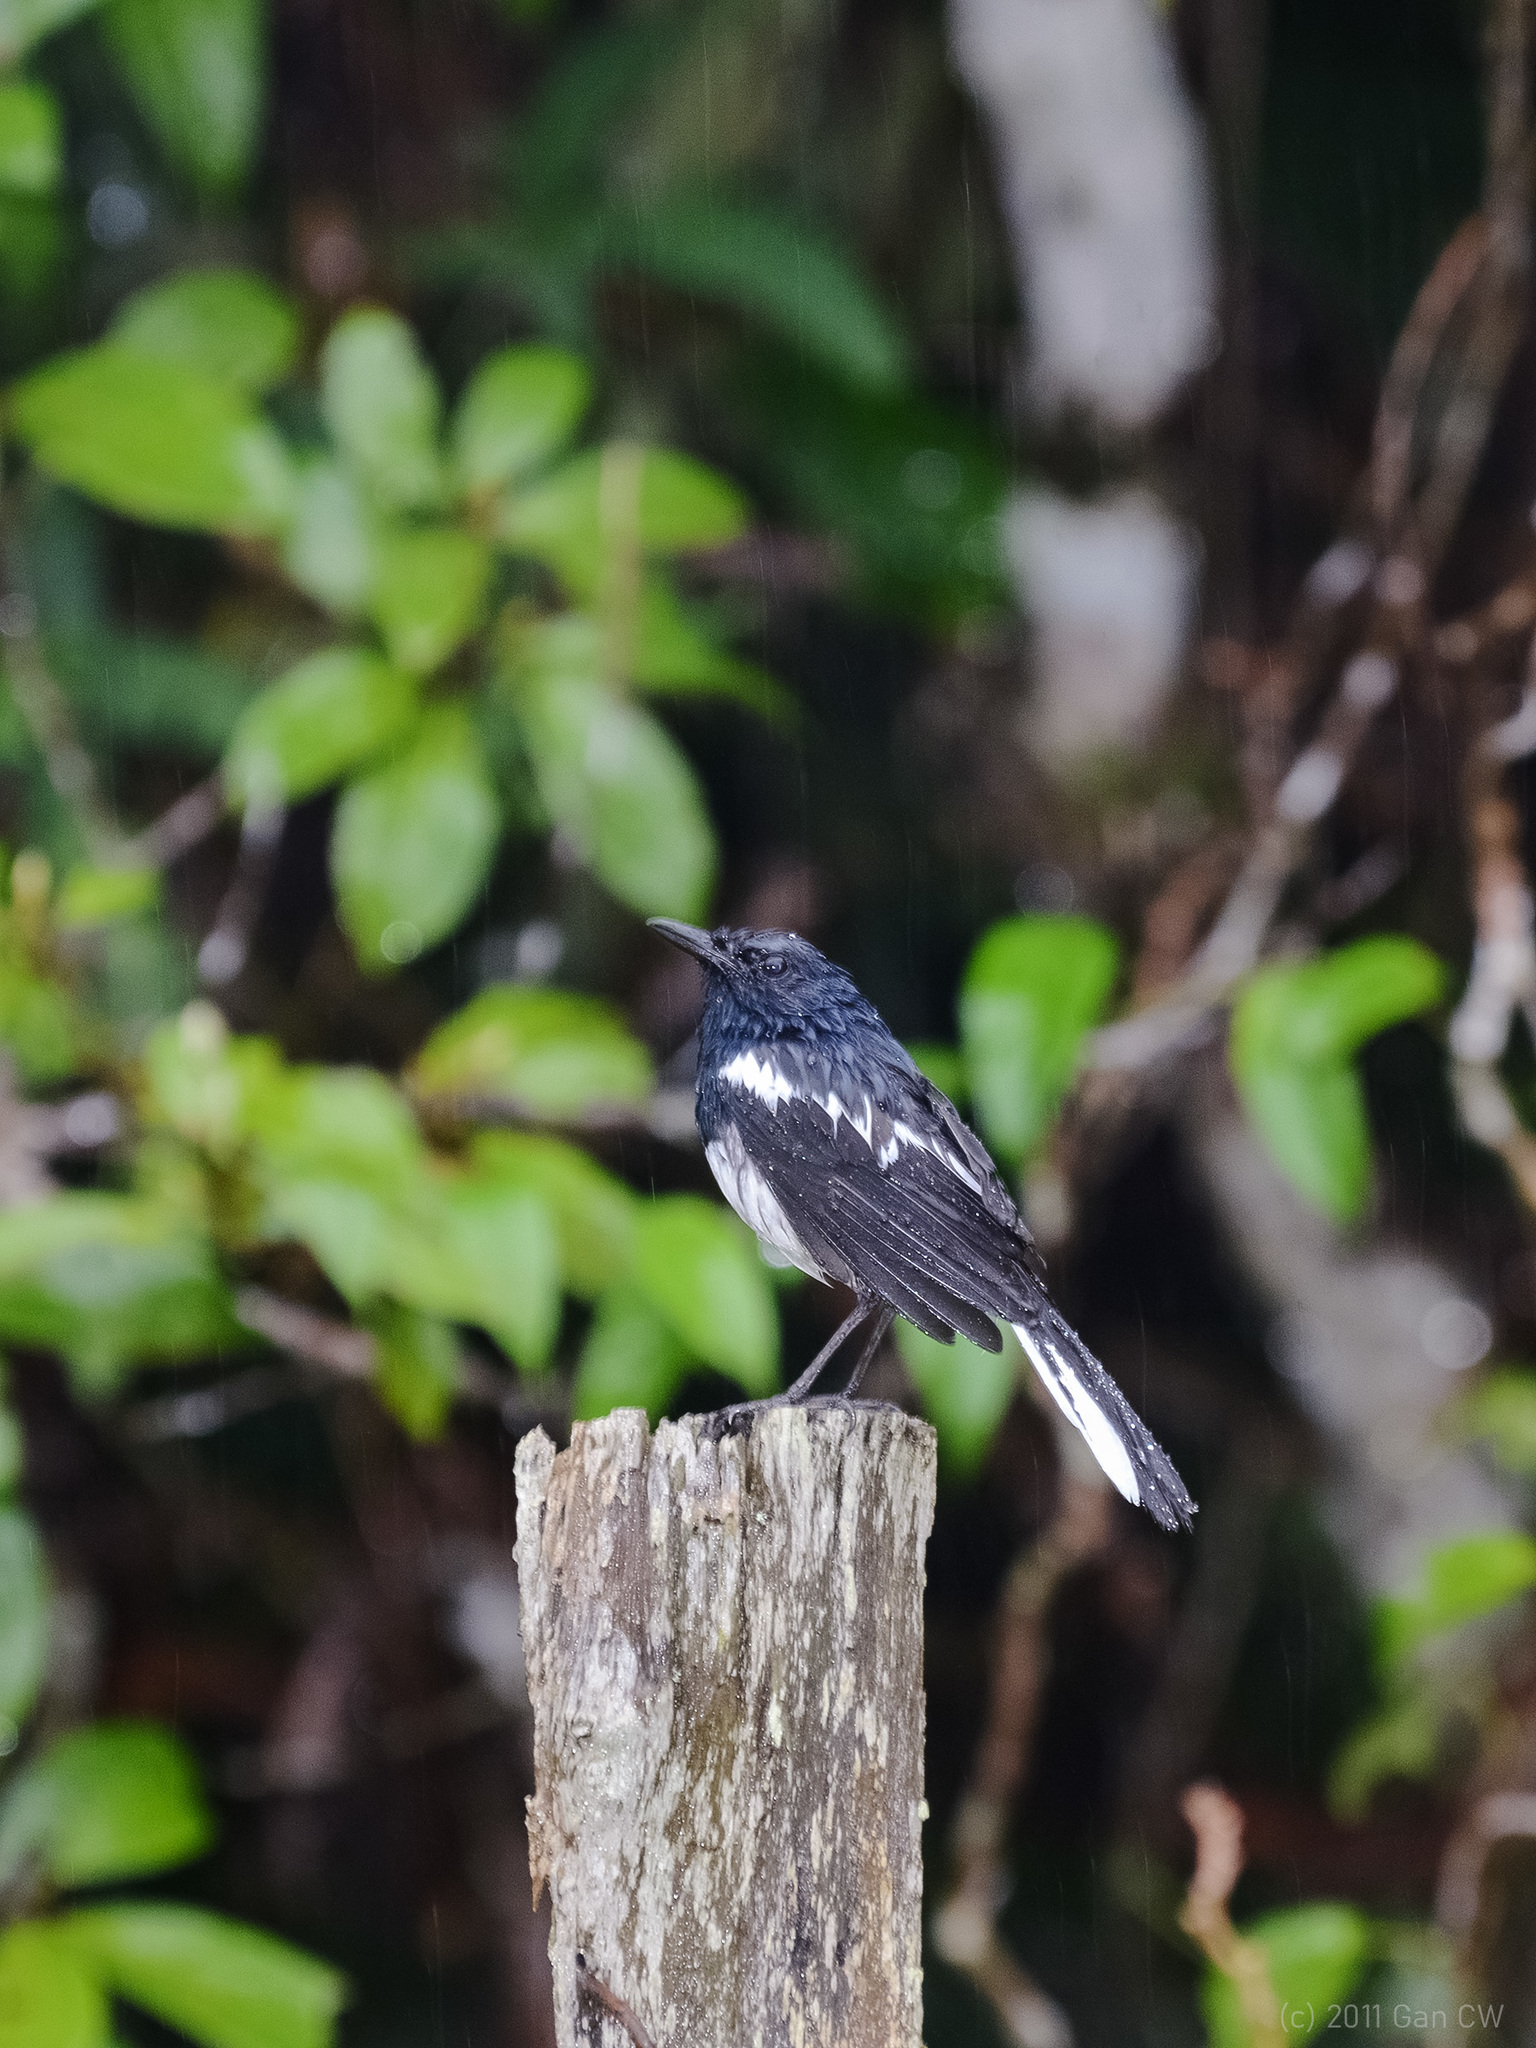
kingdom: Animalia
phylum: Chordata
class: Aves
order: Passeriformes
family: Muscicapidae
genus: Copsychus
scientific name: Copsychus saularis
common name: Oriental magpie-robin
